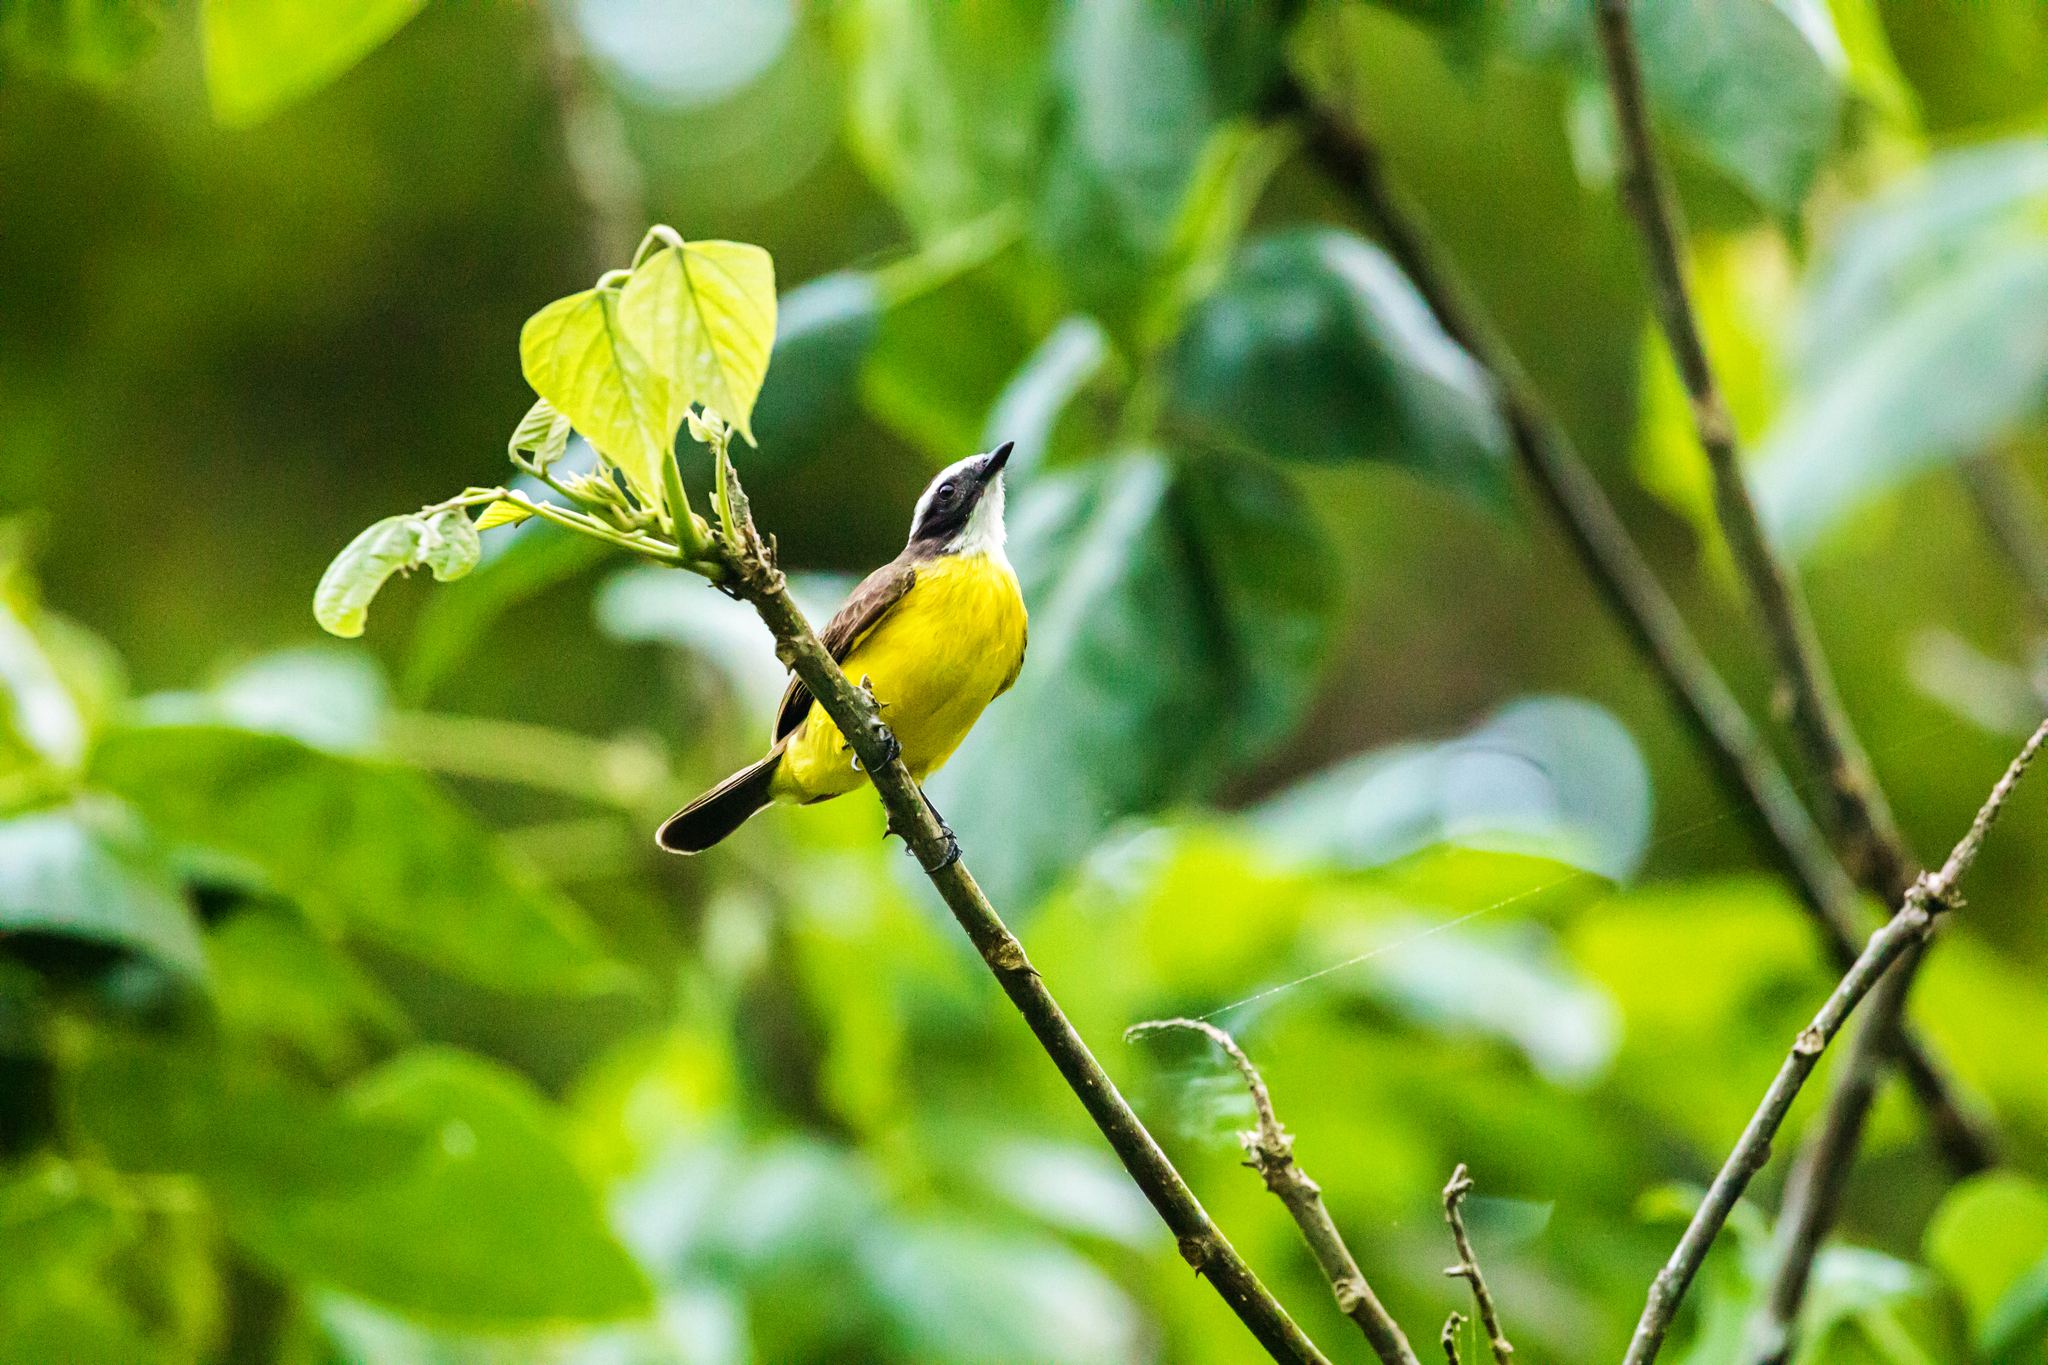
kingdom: Animalia
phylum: Chordata
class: Aves
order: Passeriformes
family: Tyrannidae
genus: Myiozetetes
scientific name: Myiozetetes similis
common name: Social flycatcher
